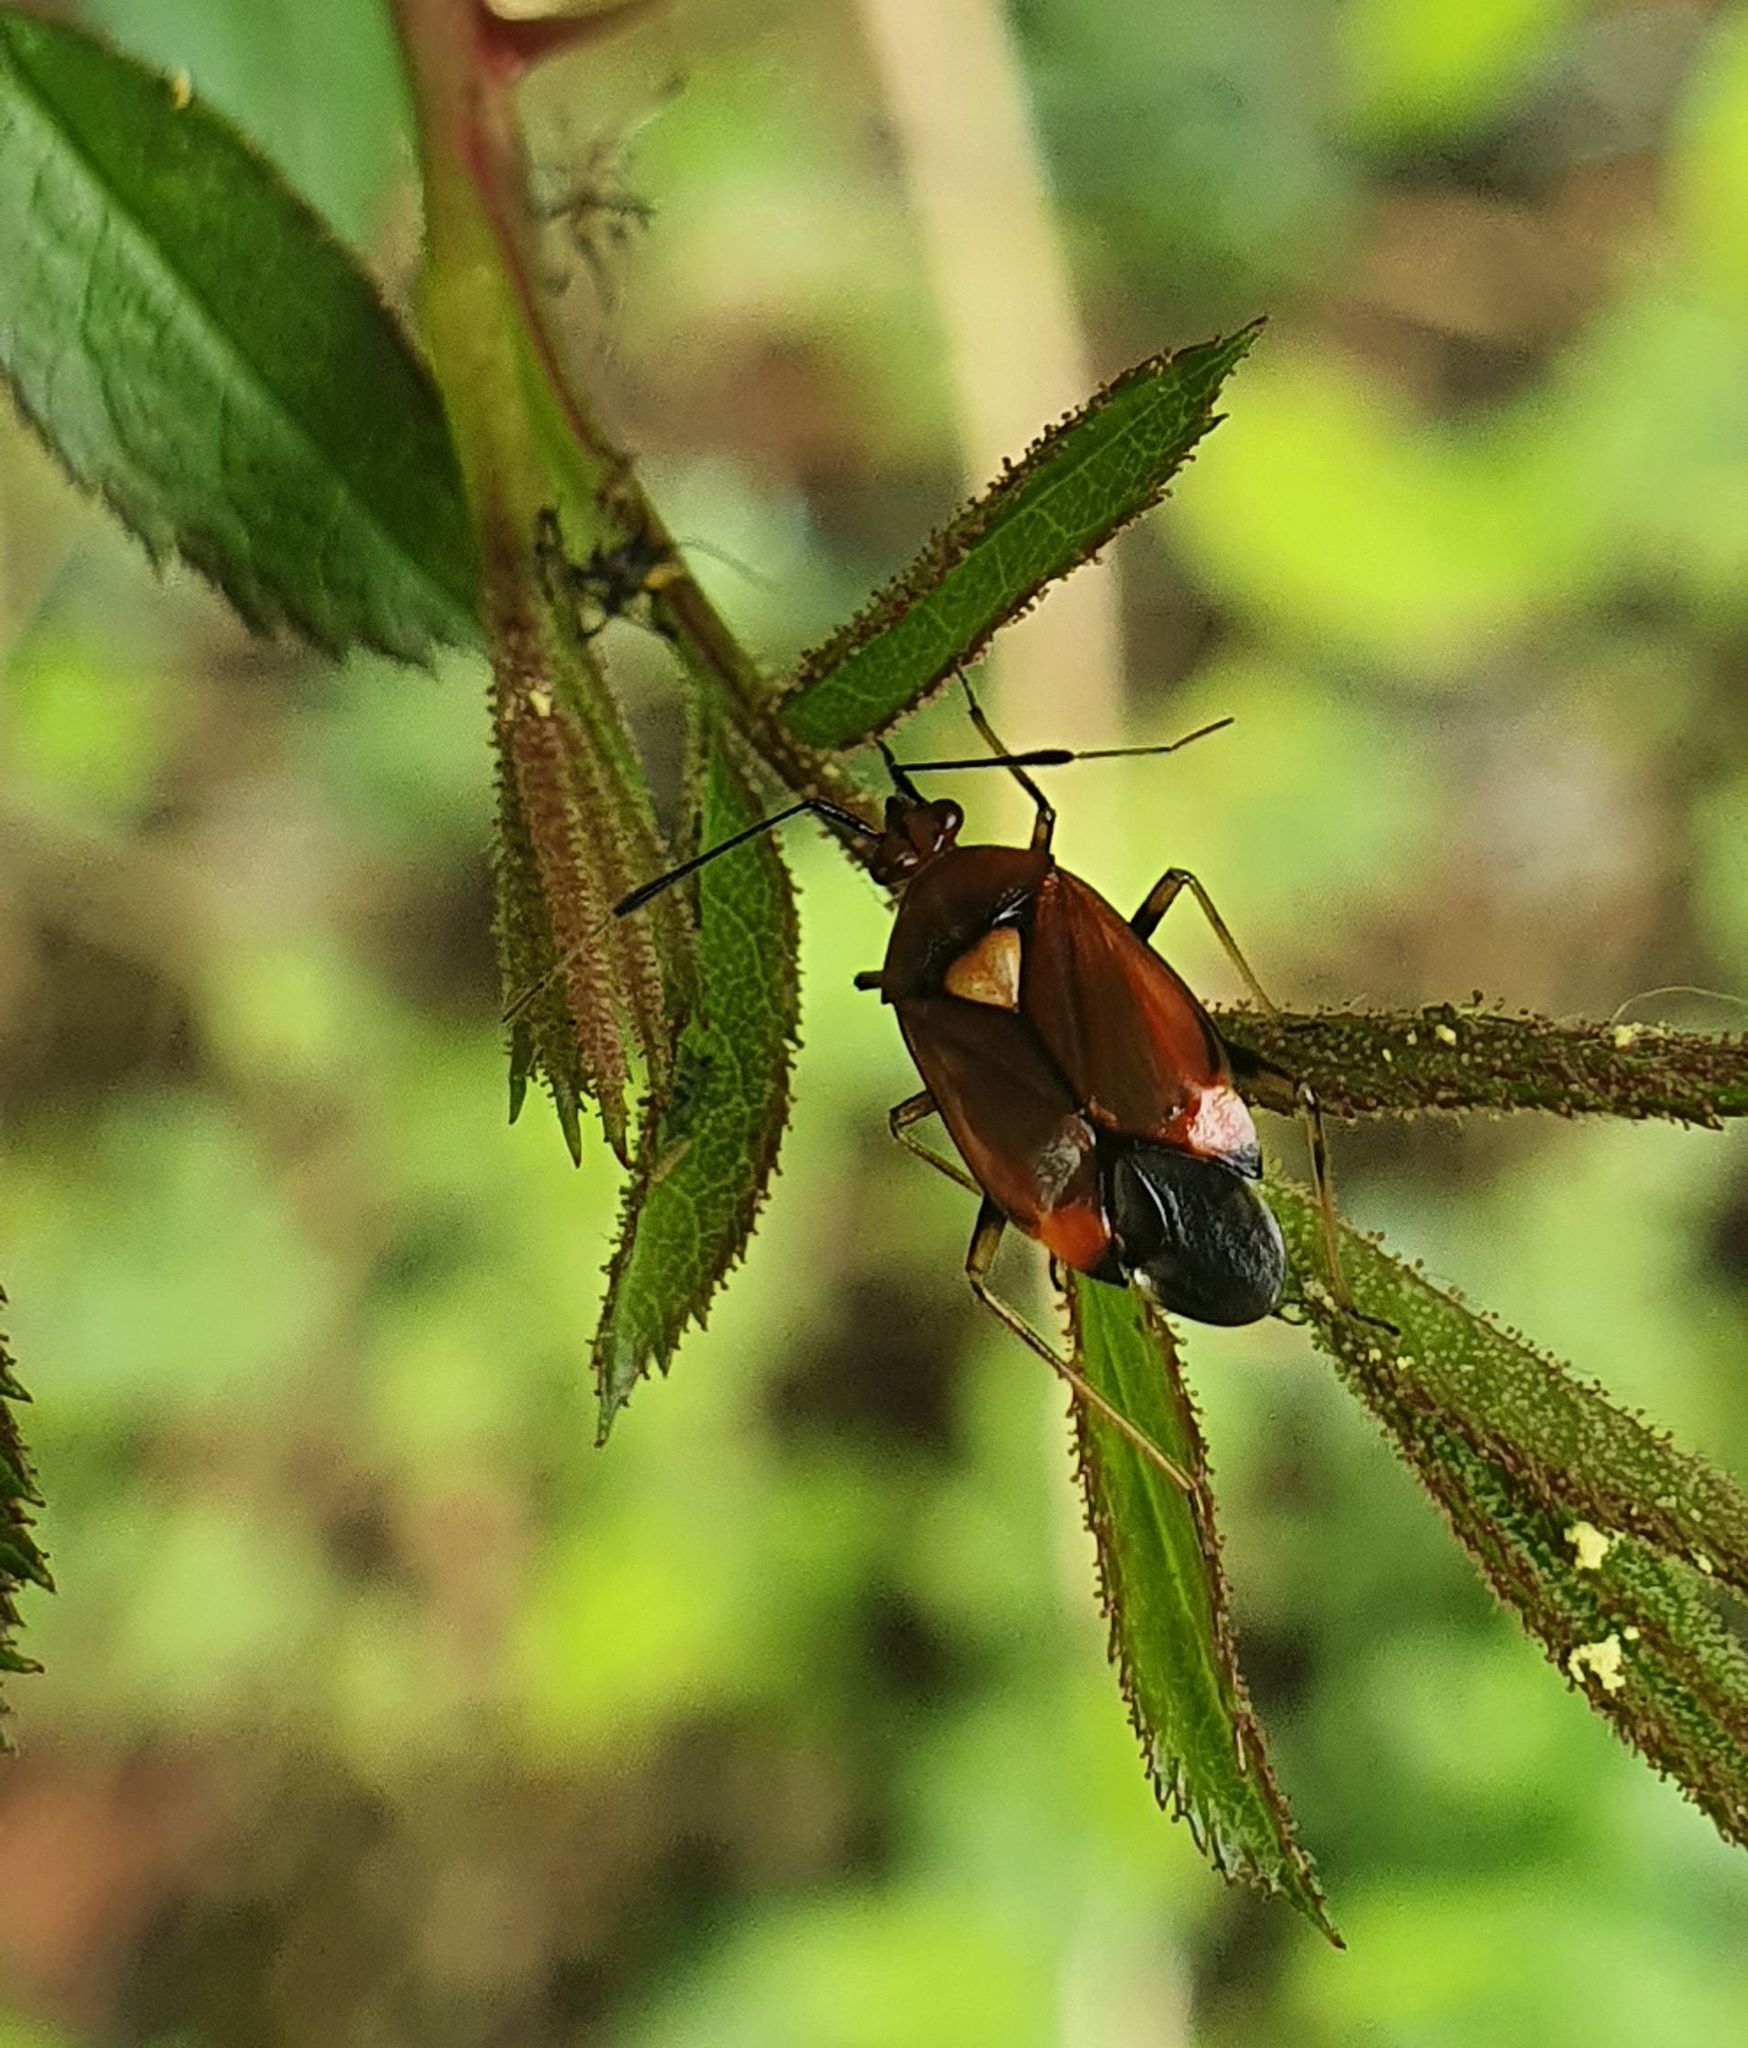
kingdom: Animalia
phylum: Arthropoda
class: Insecta
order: Hemiptera
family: Miridae
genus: Deraeocoris
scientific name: Deraeocoris ruber
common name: Plant bug
